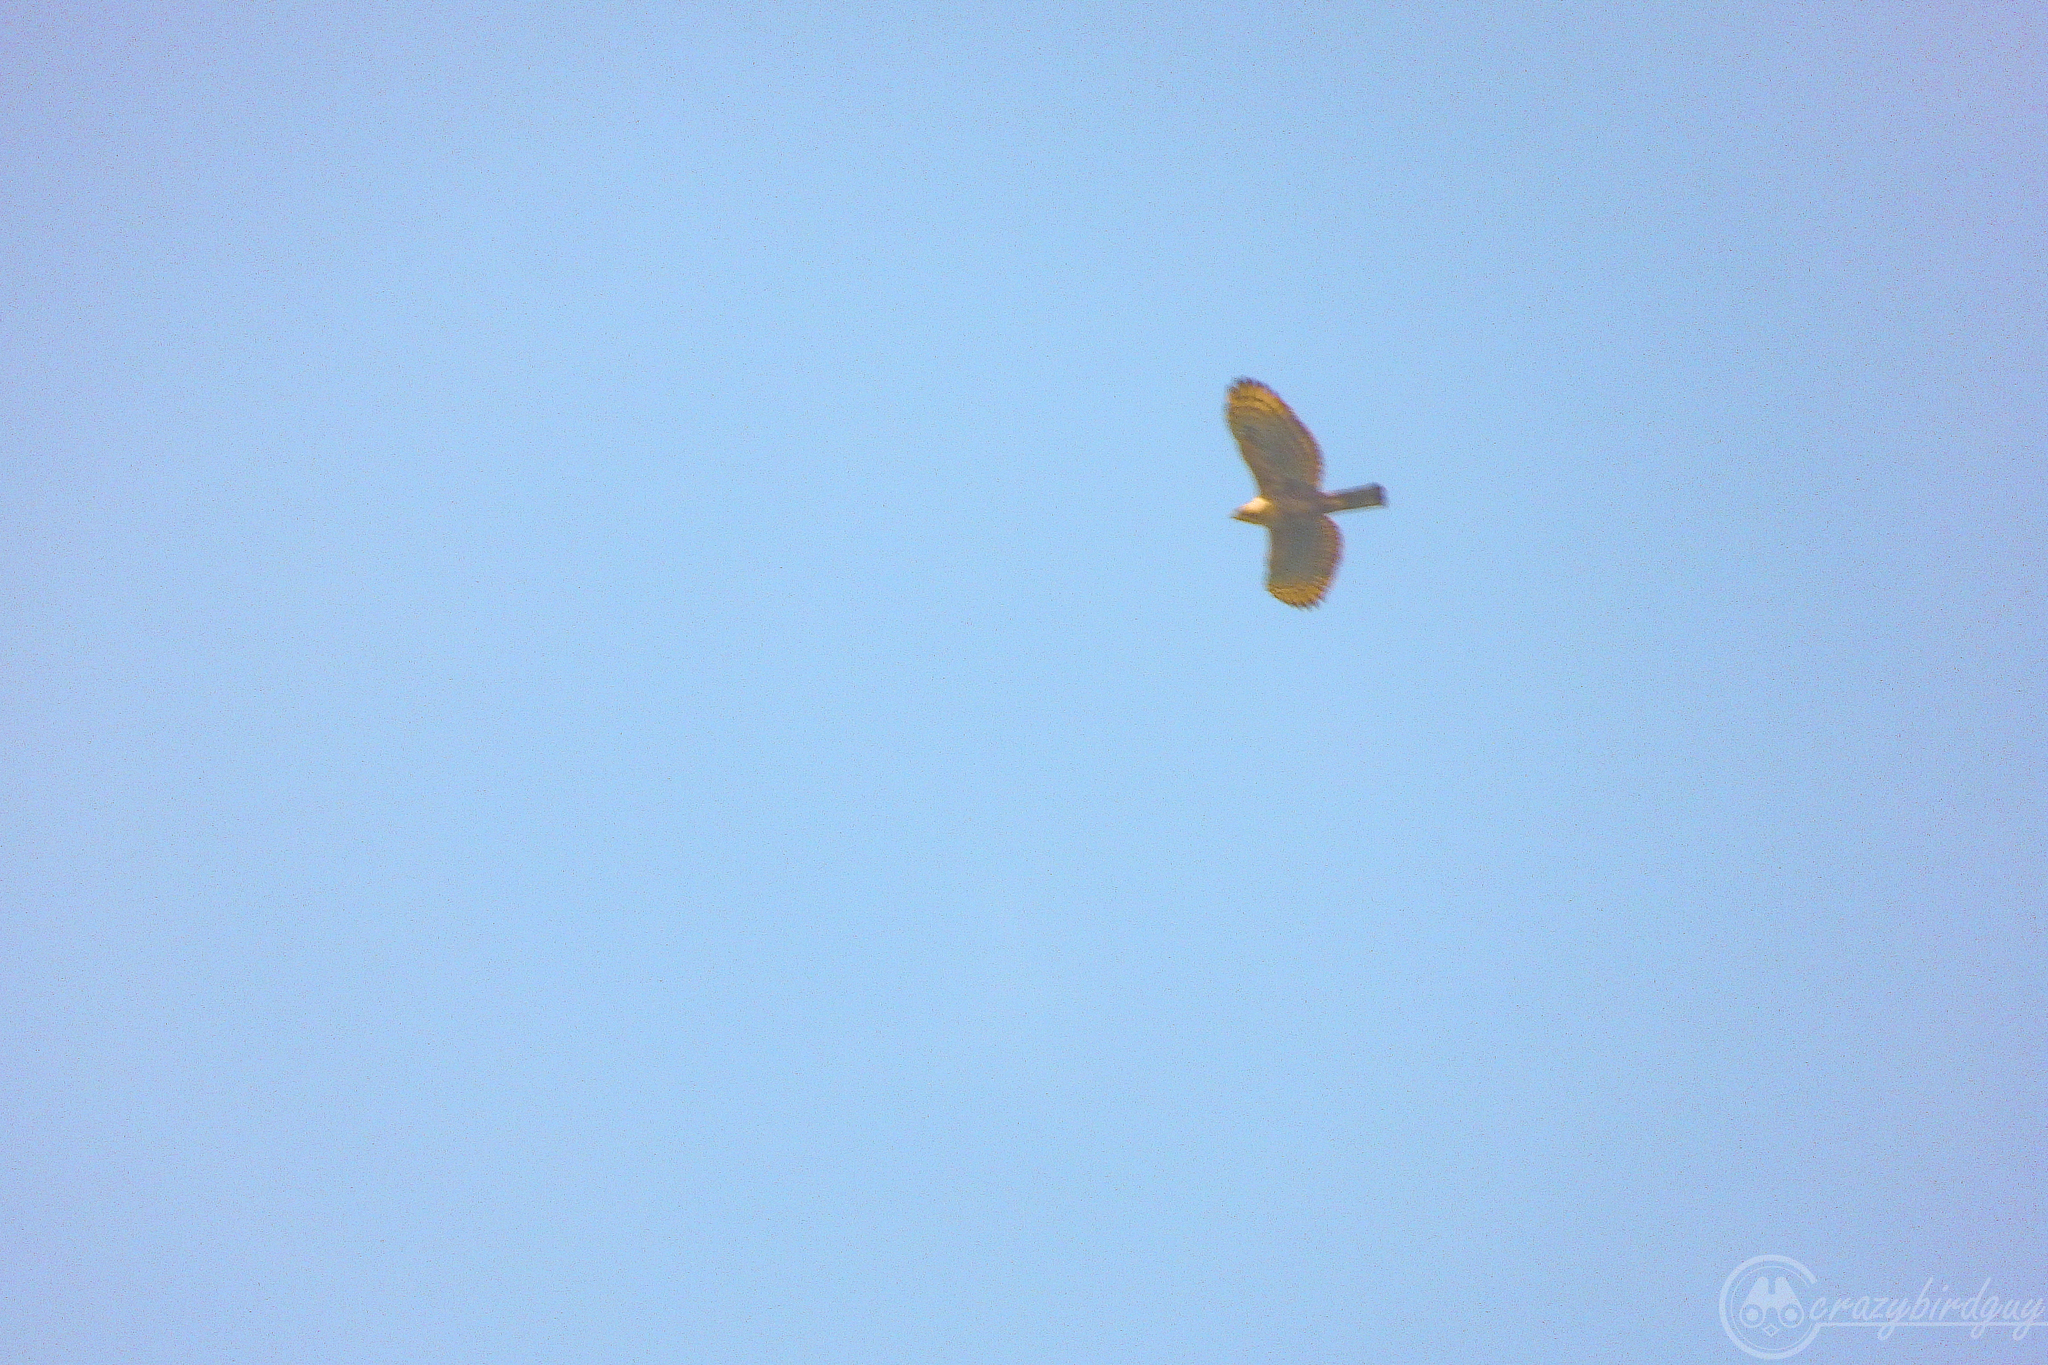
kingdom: Animalia
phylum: Chordata
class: Aves
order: Accipitriformes
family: Accipitridae
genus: Nisaetus
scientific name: Nisaetus bartelsi
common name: Javan hawk-eagle
